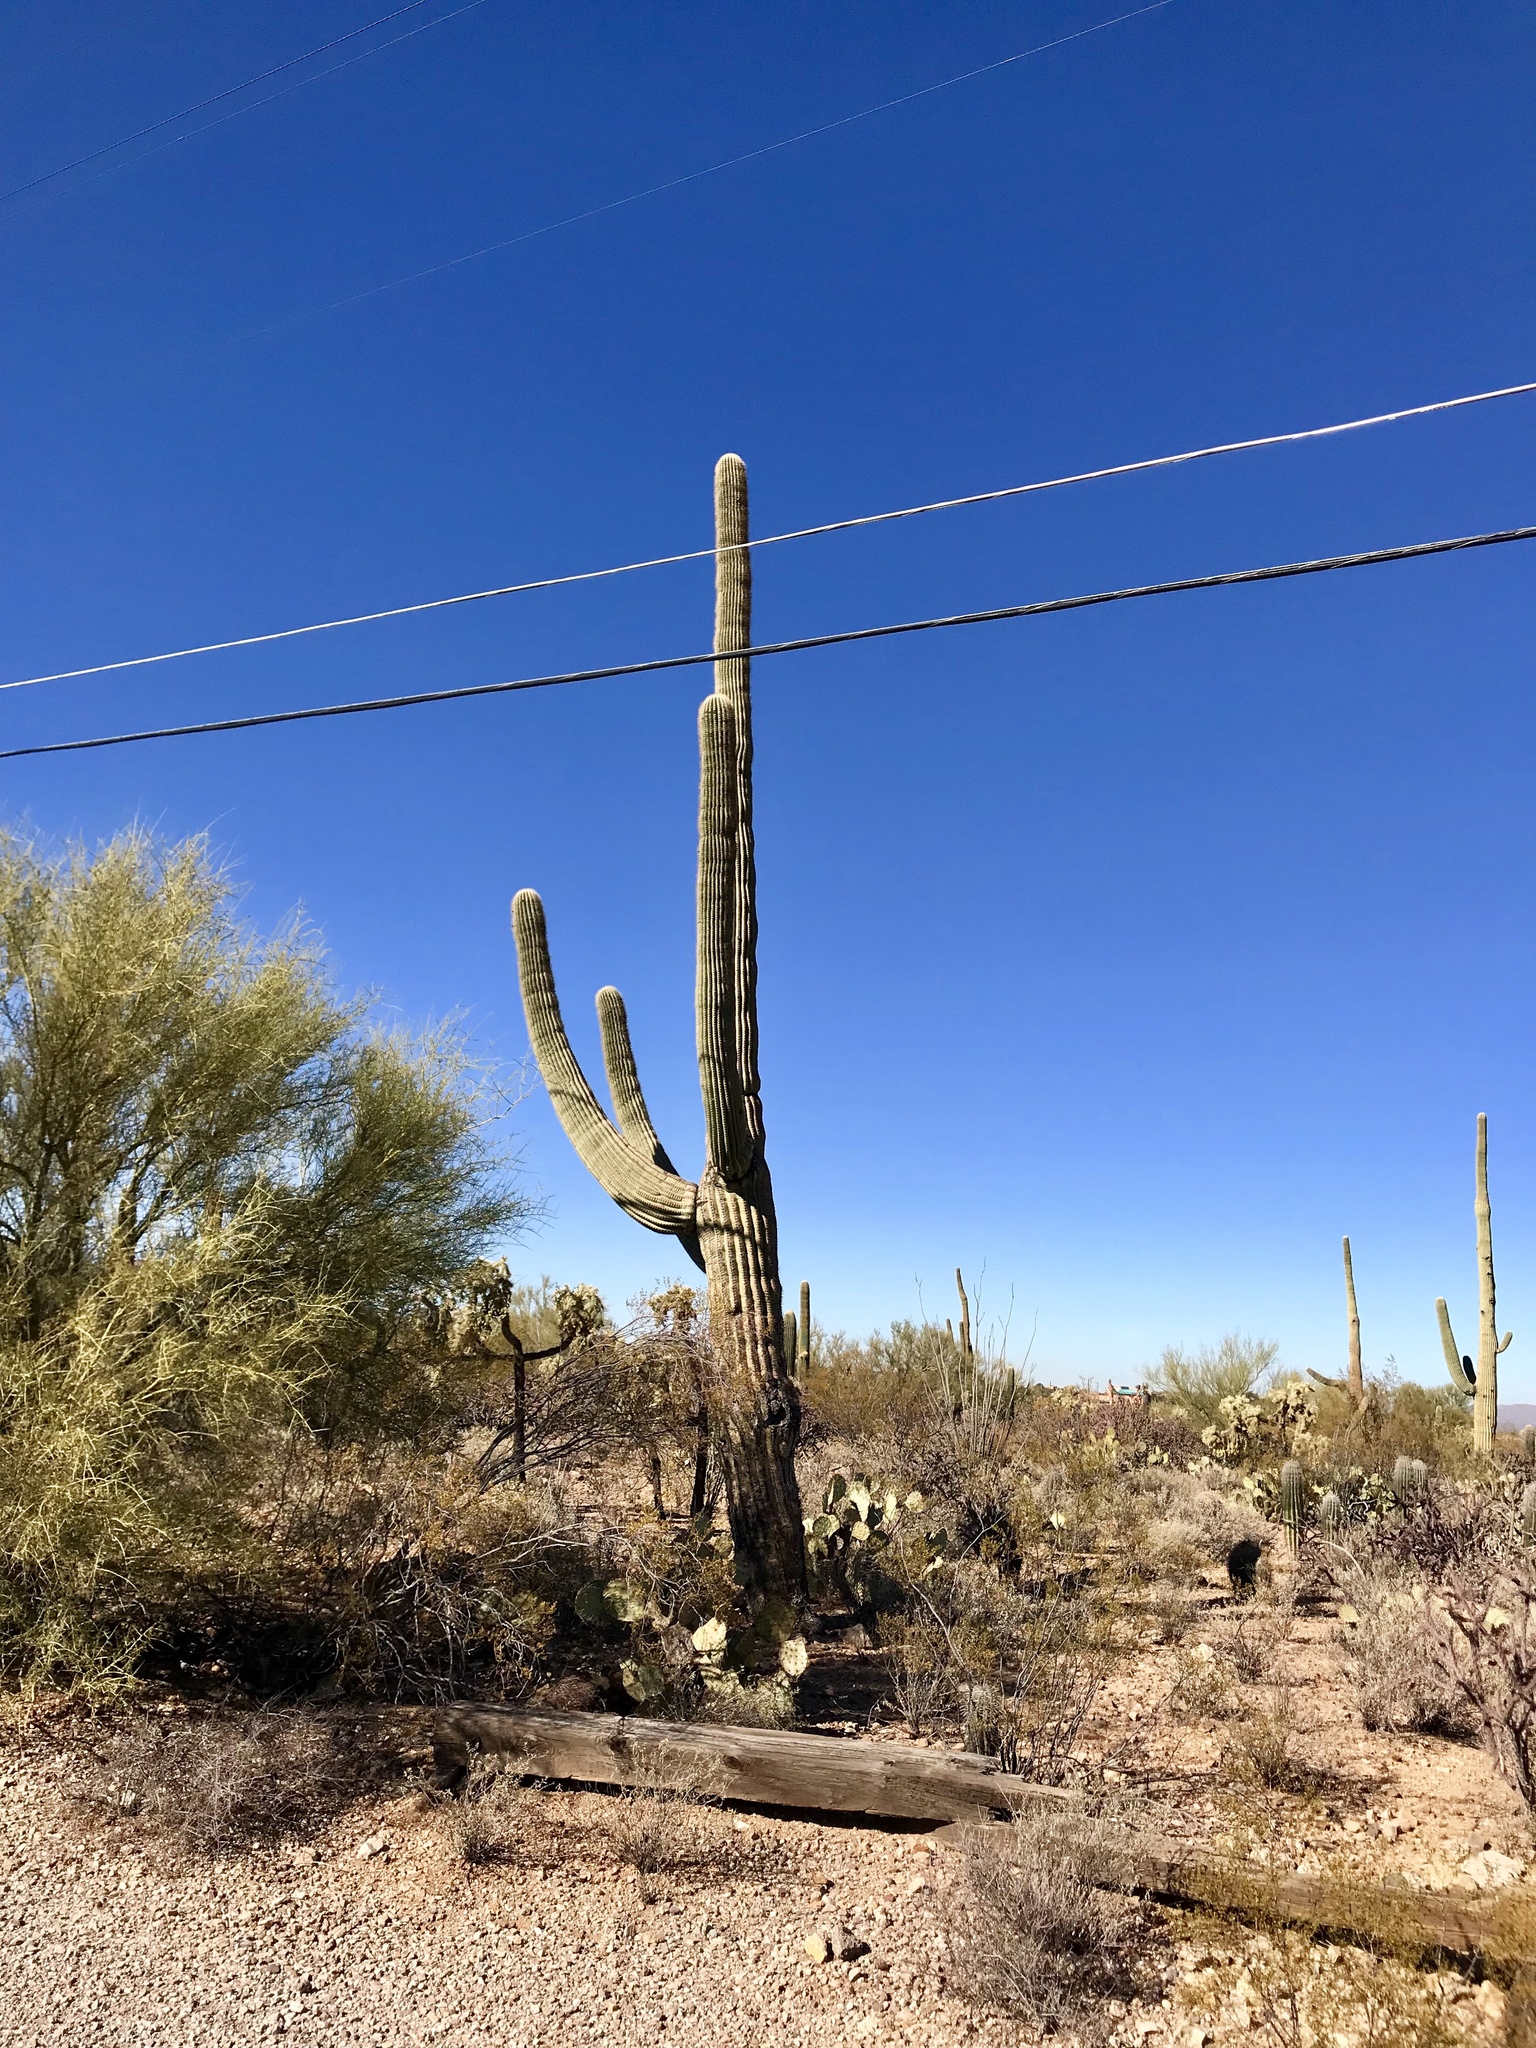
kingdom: Plantae
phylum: Tracheophyta
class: Magnoliopsida
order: Caryophyllales
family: Cactaceae
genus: Carnegiea
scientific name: Carnegiea gigantea
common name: Saguaro
